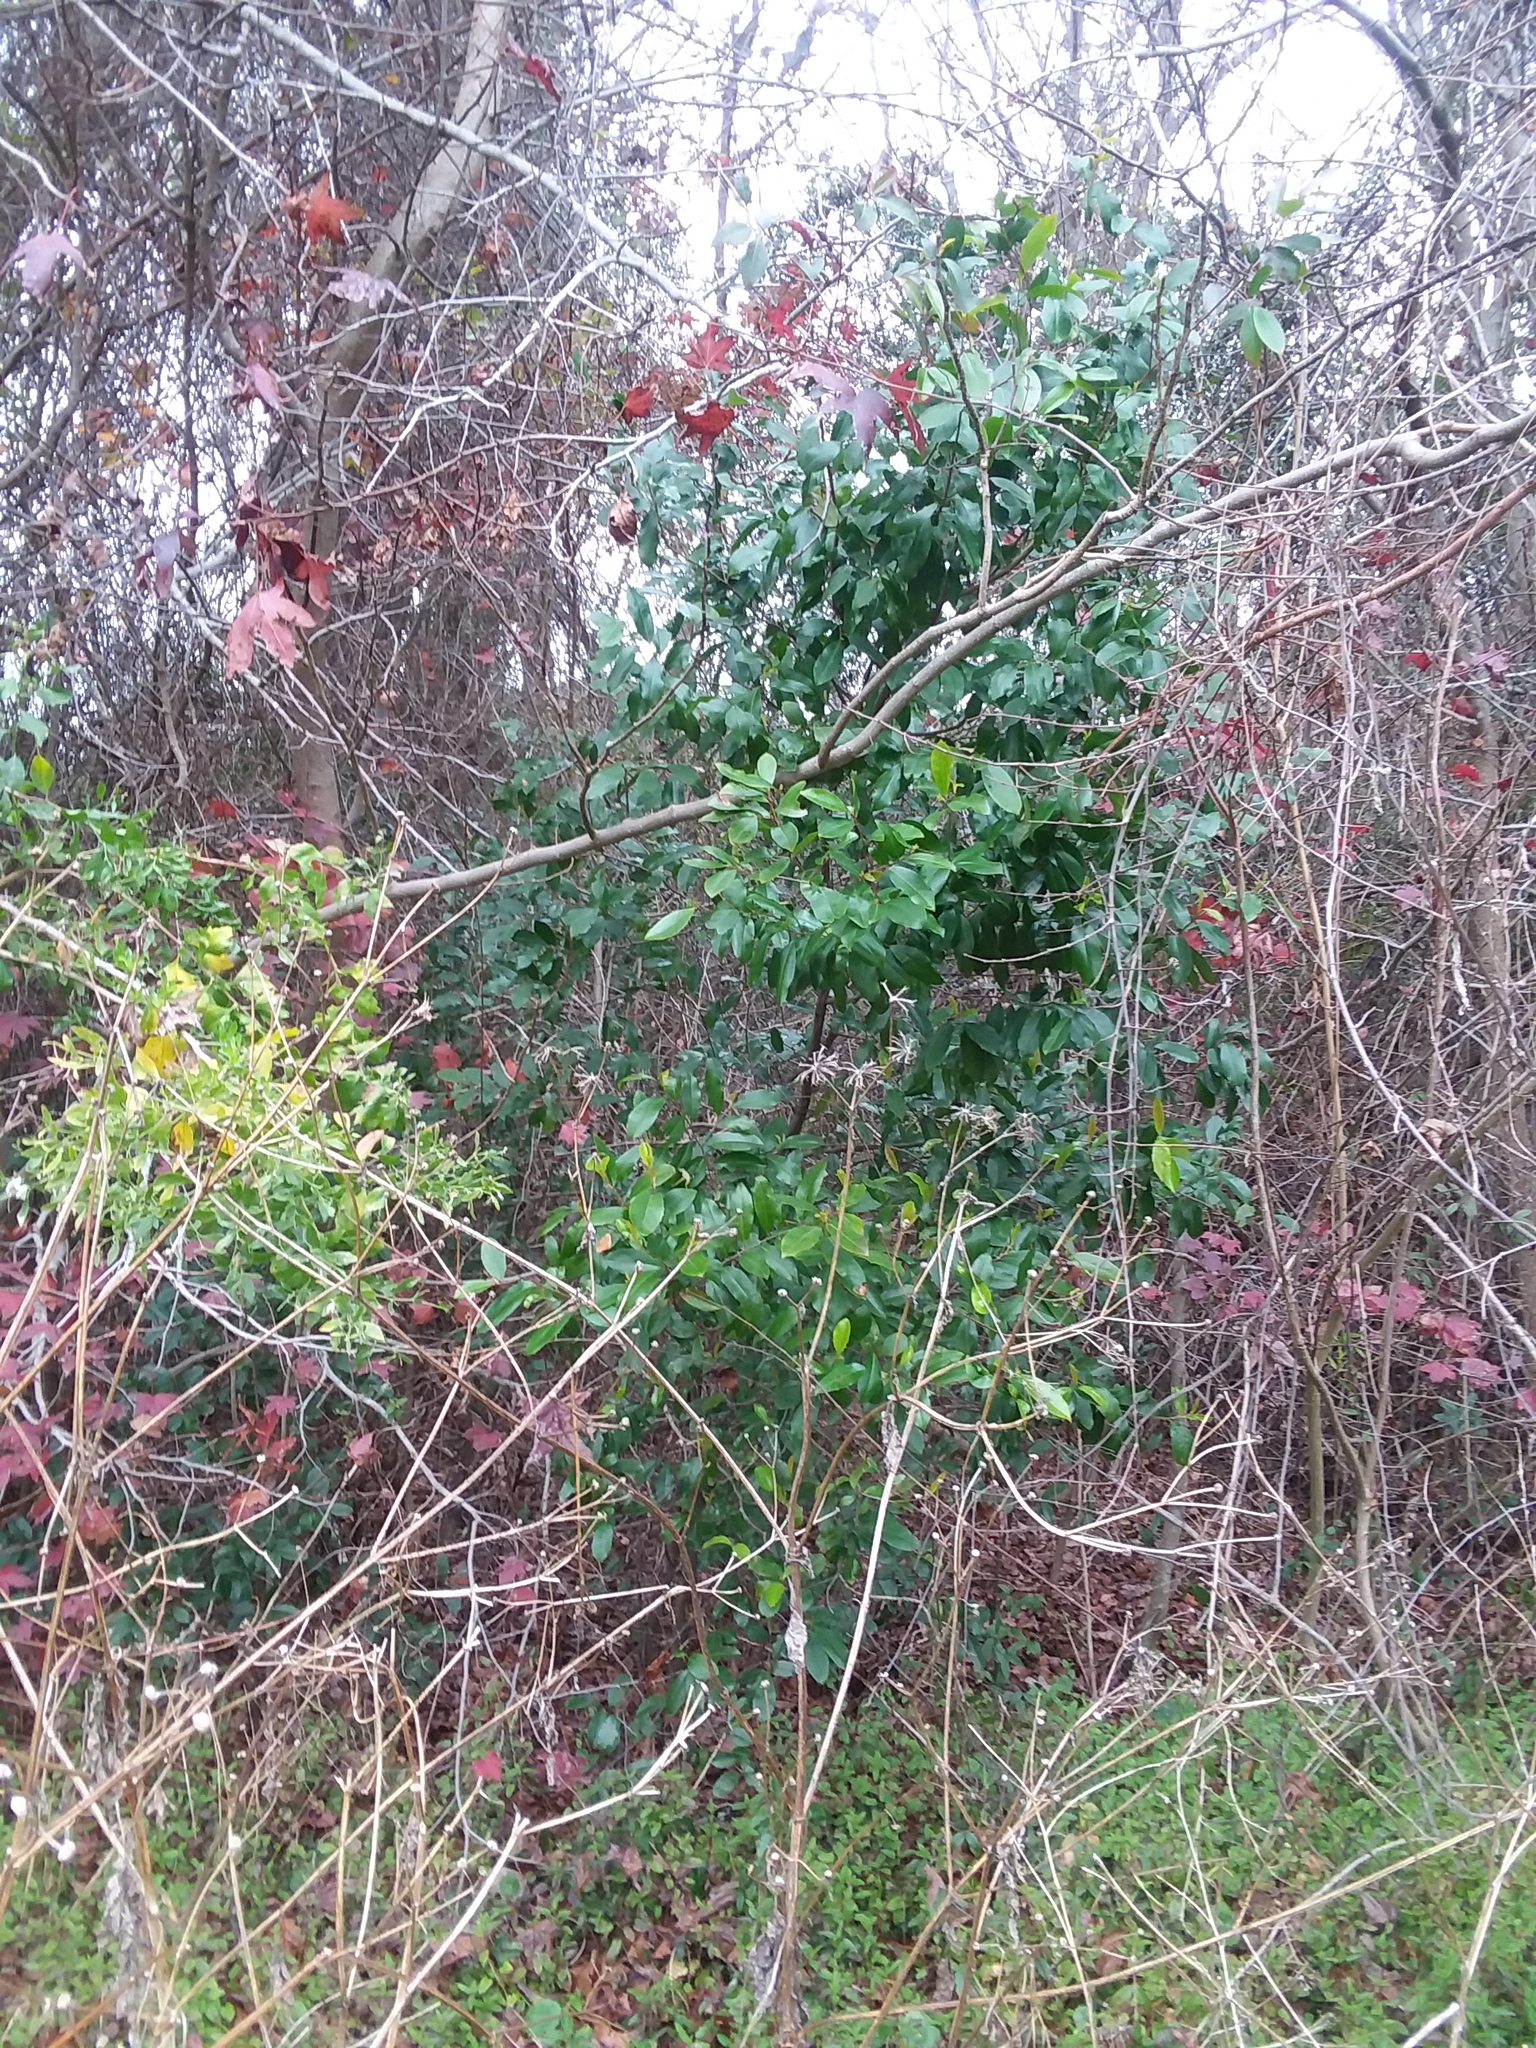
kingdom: Plantae
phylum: Tracheophyta
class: Magnoliopsida
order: Rosales
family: Rosaceae
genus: Prunus
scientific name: Prunus caroliniana
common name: Carolina laurel cherry
